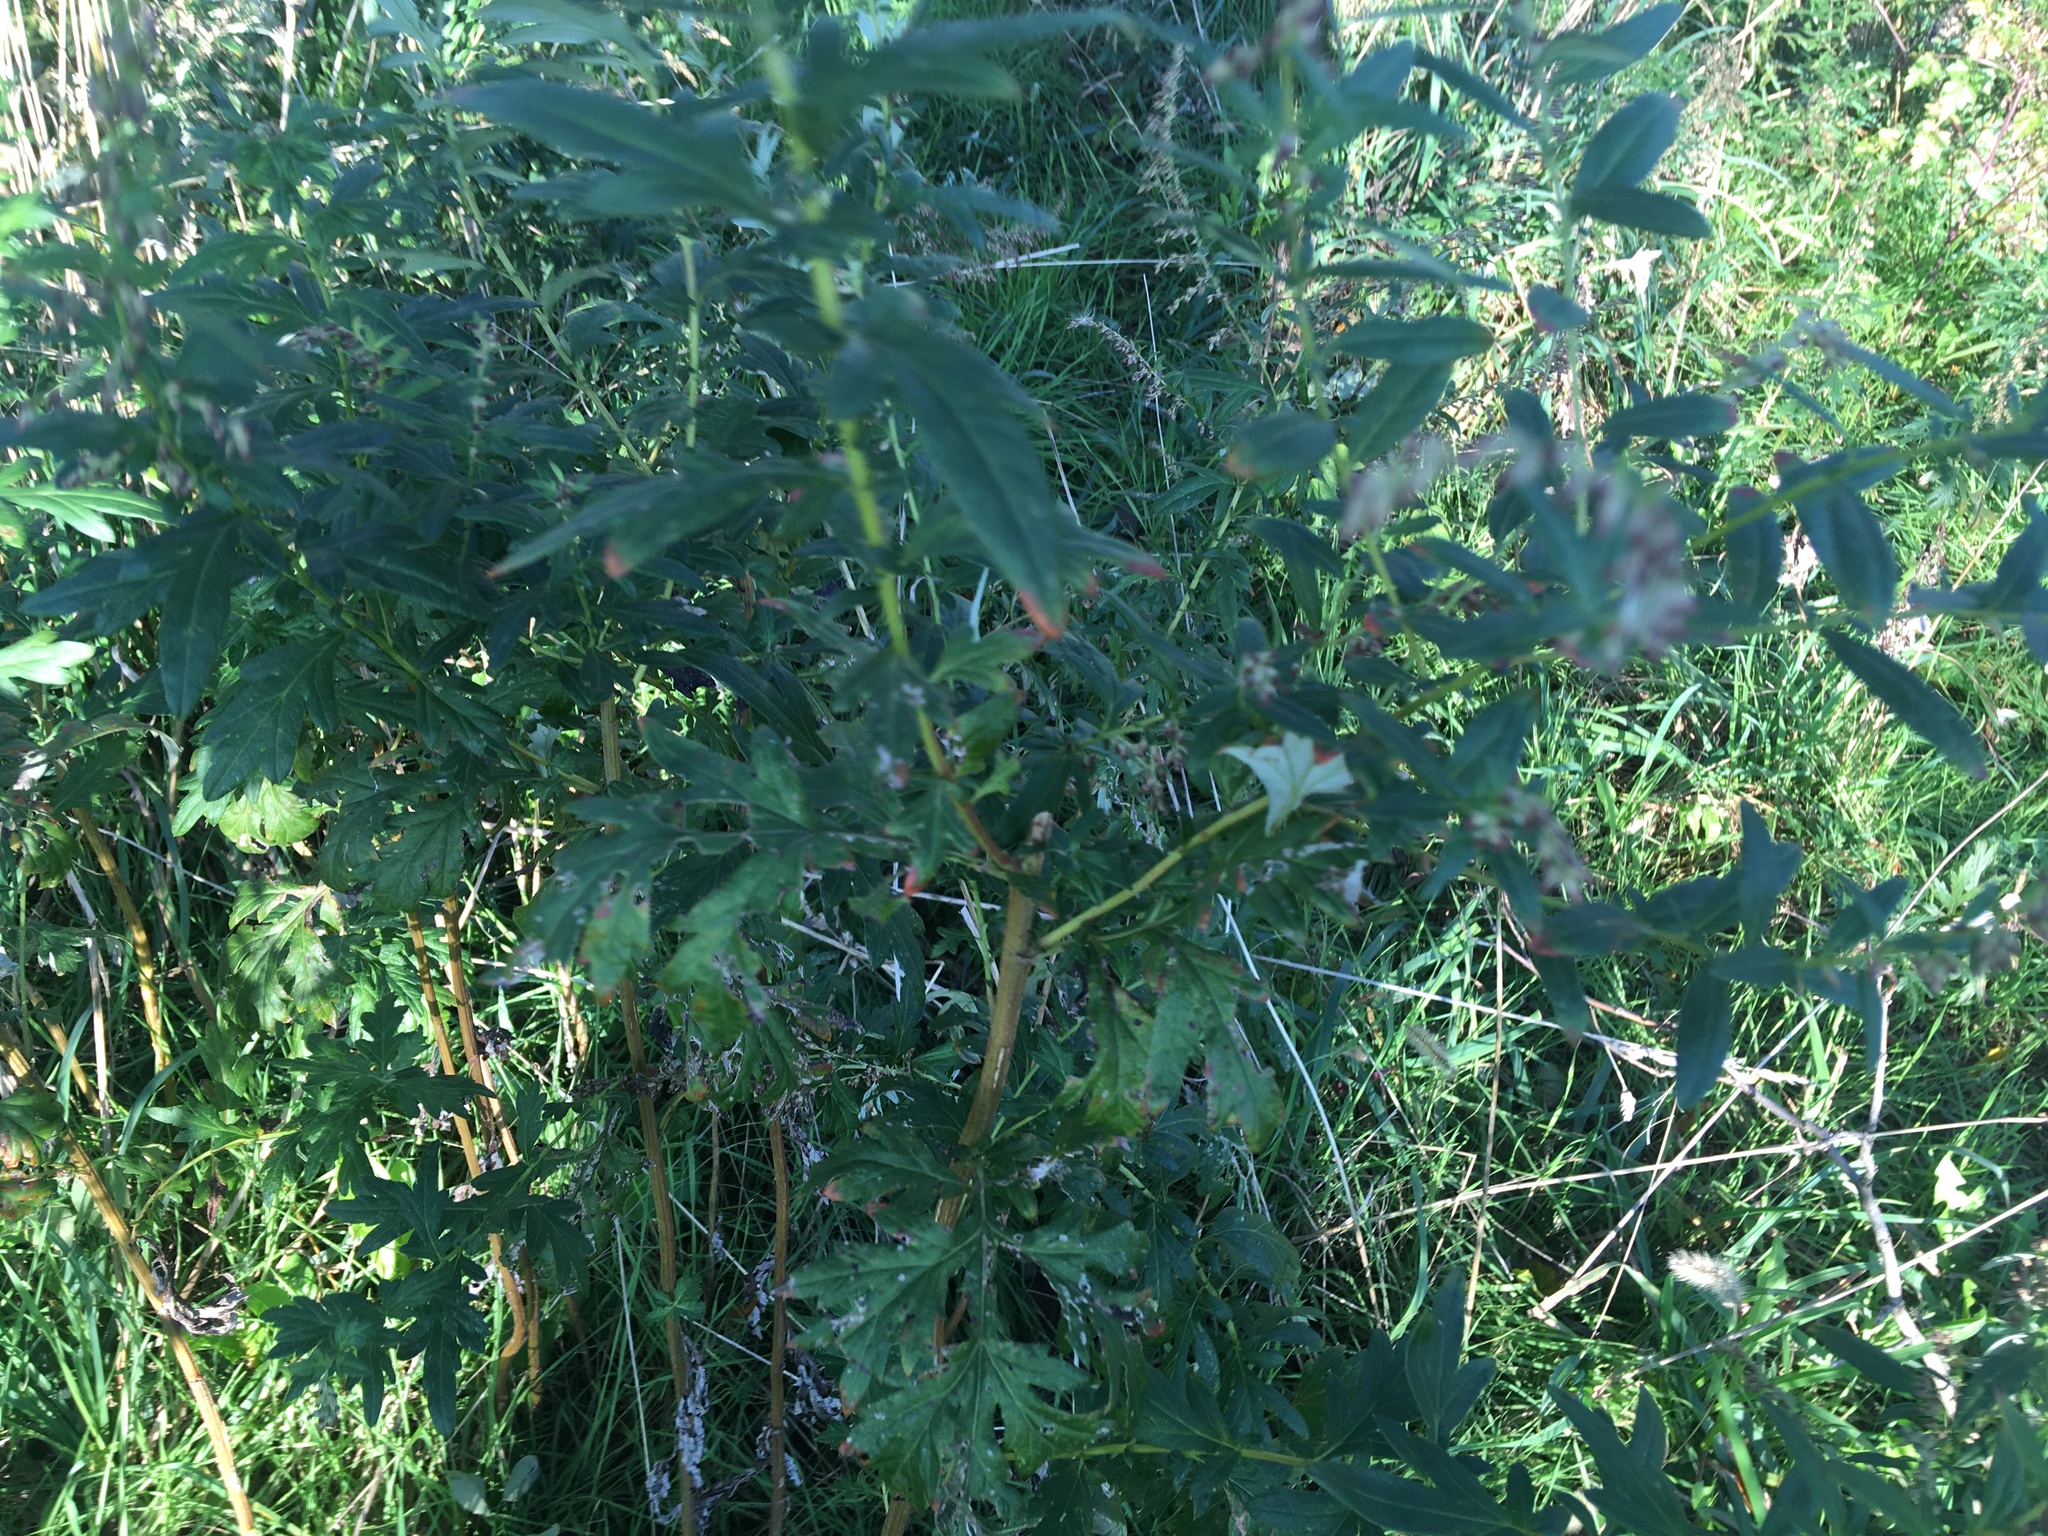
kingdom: Plantae
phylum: Tracheophyta
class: Magnoliopsida
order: Asterales
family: Asteraceae
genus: Artemisia
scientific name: Artemisia vulgaris
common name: Mugwort
